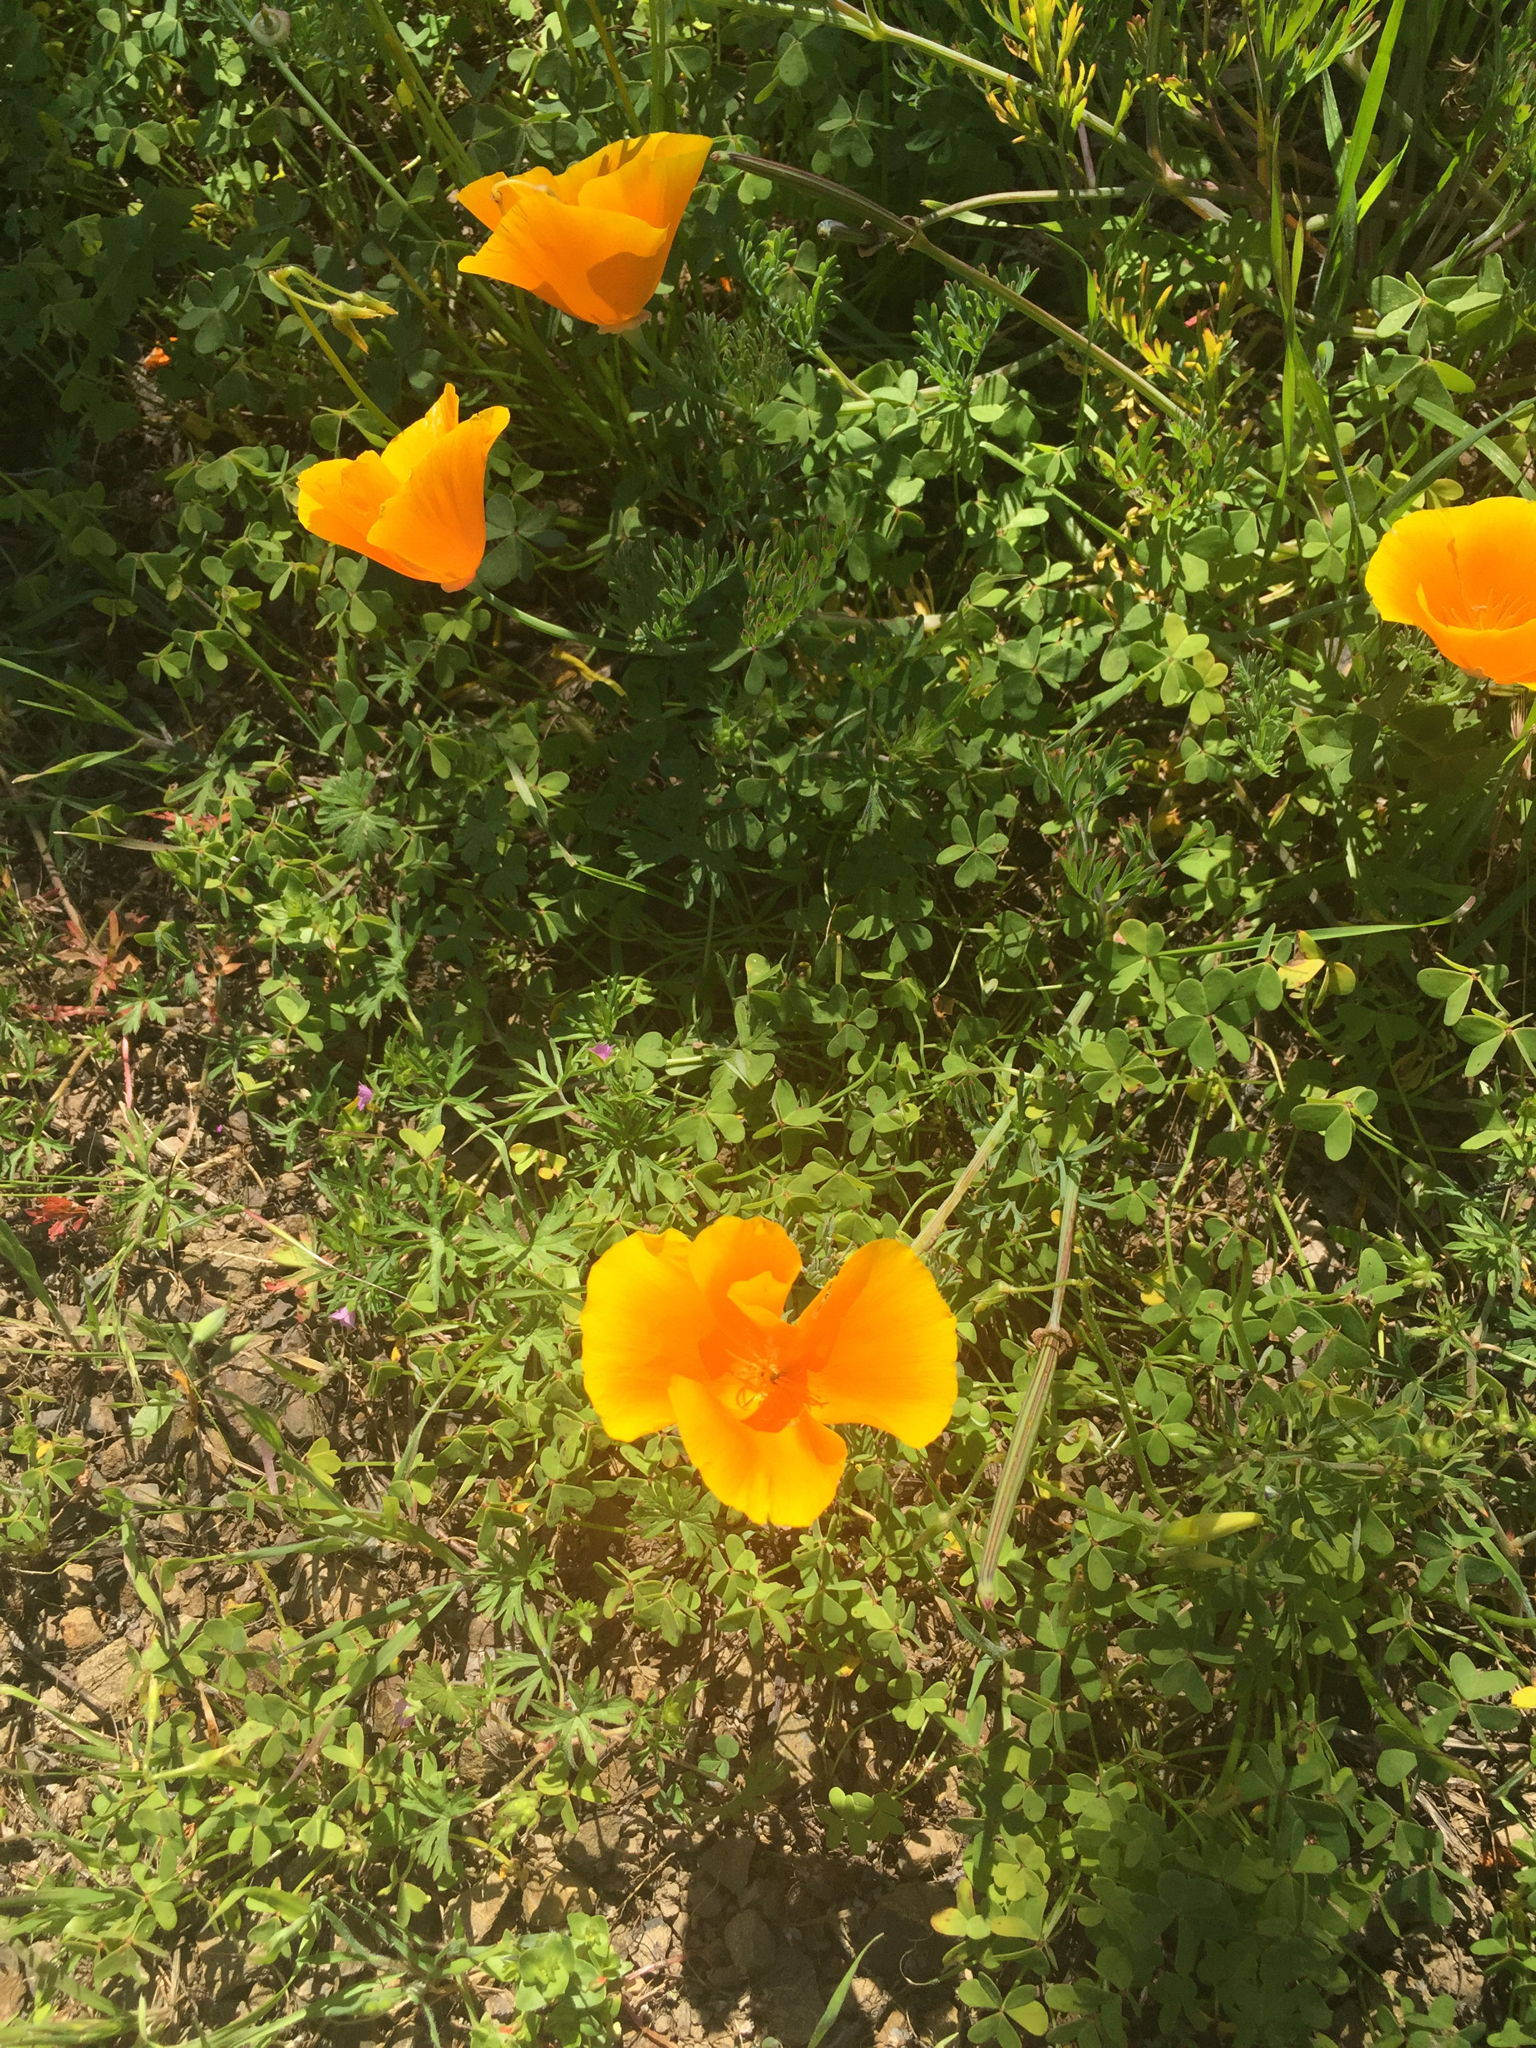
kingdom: Plantae
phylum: Tracheophyta
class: Magnoliopsida
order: Ranunculales
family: Papaveraceae
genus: Eschscholzia
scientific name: Eschscholzia californica
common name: California poppy
